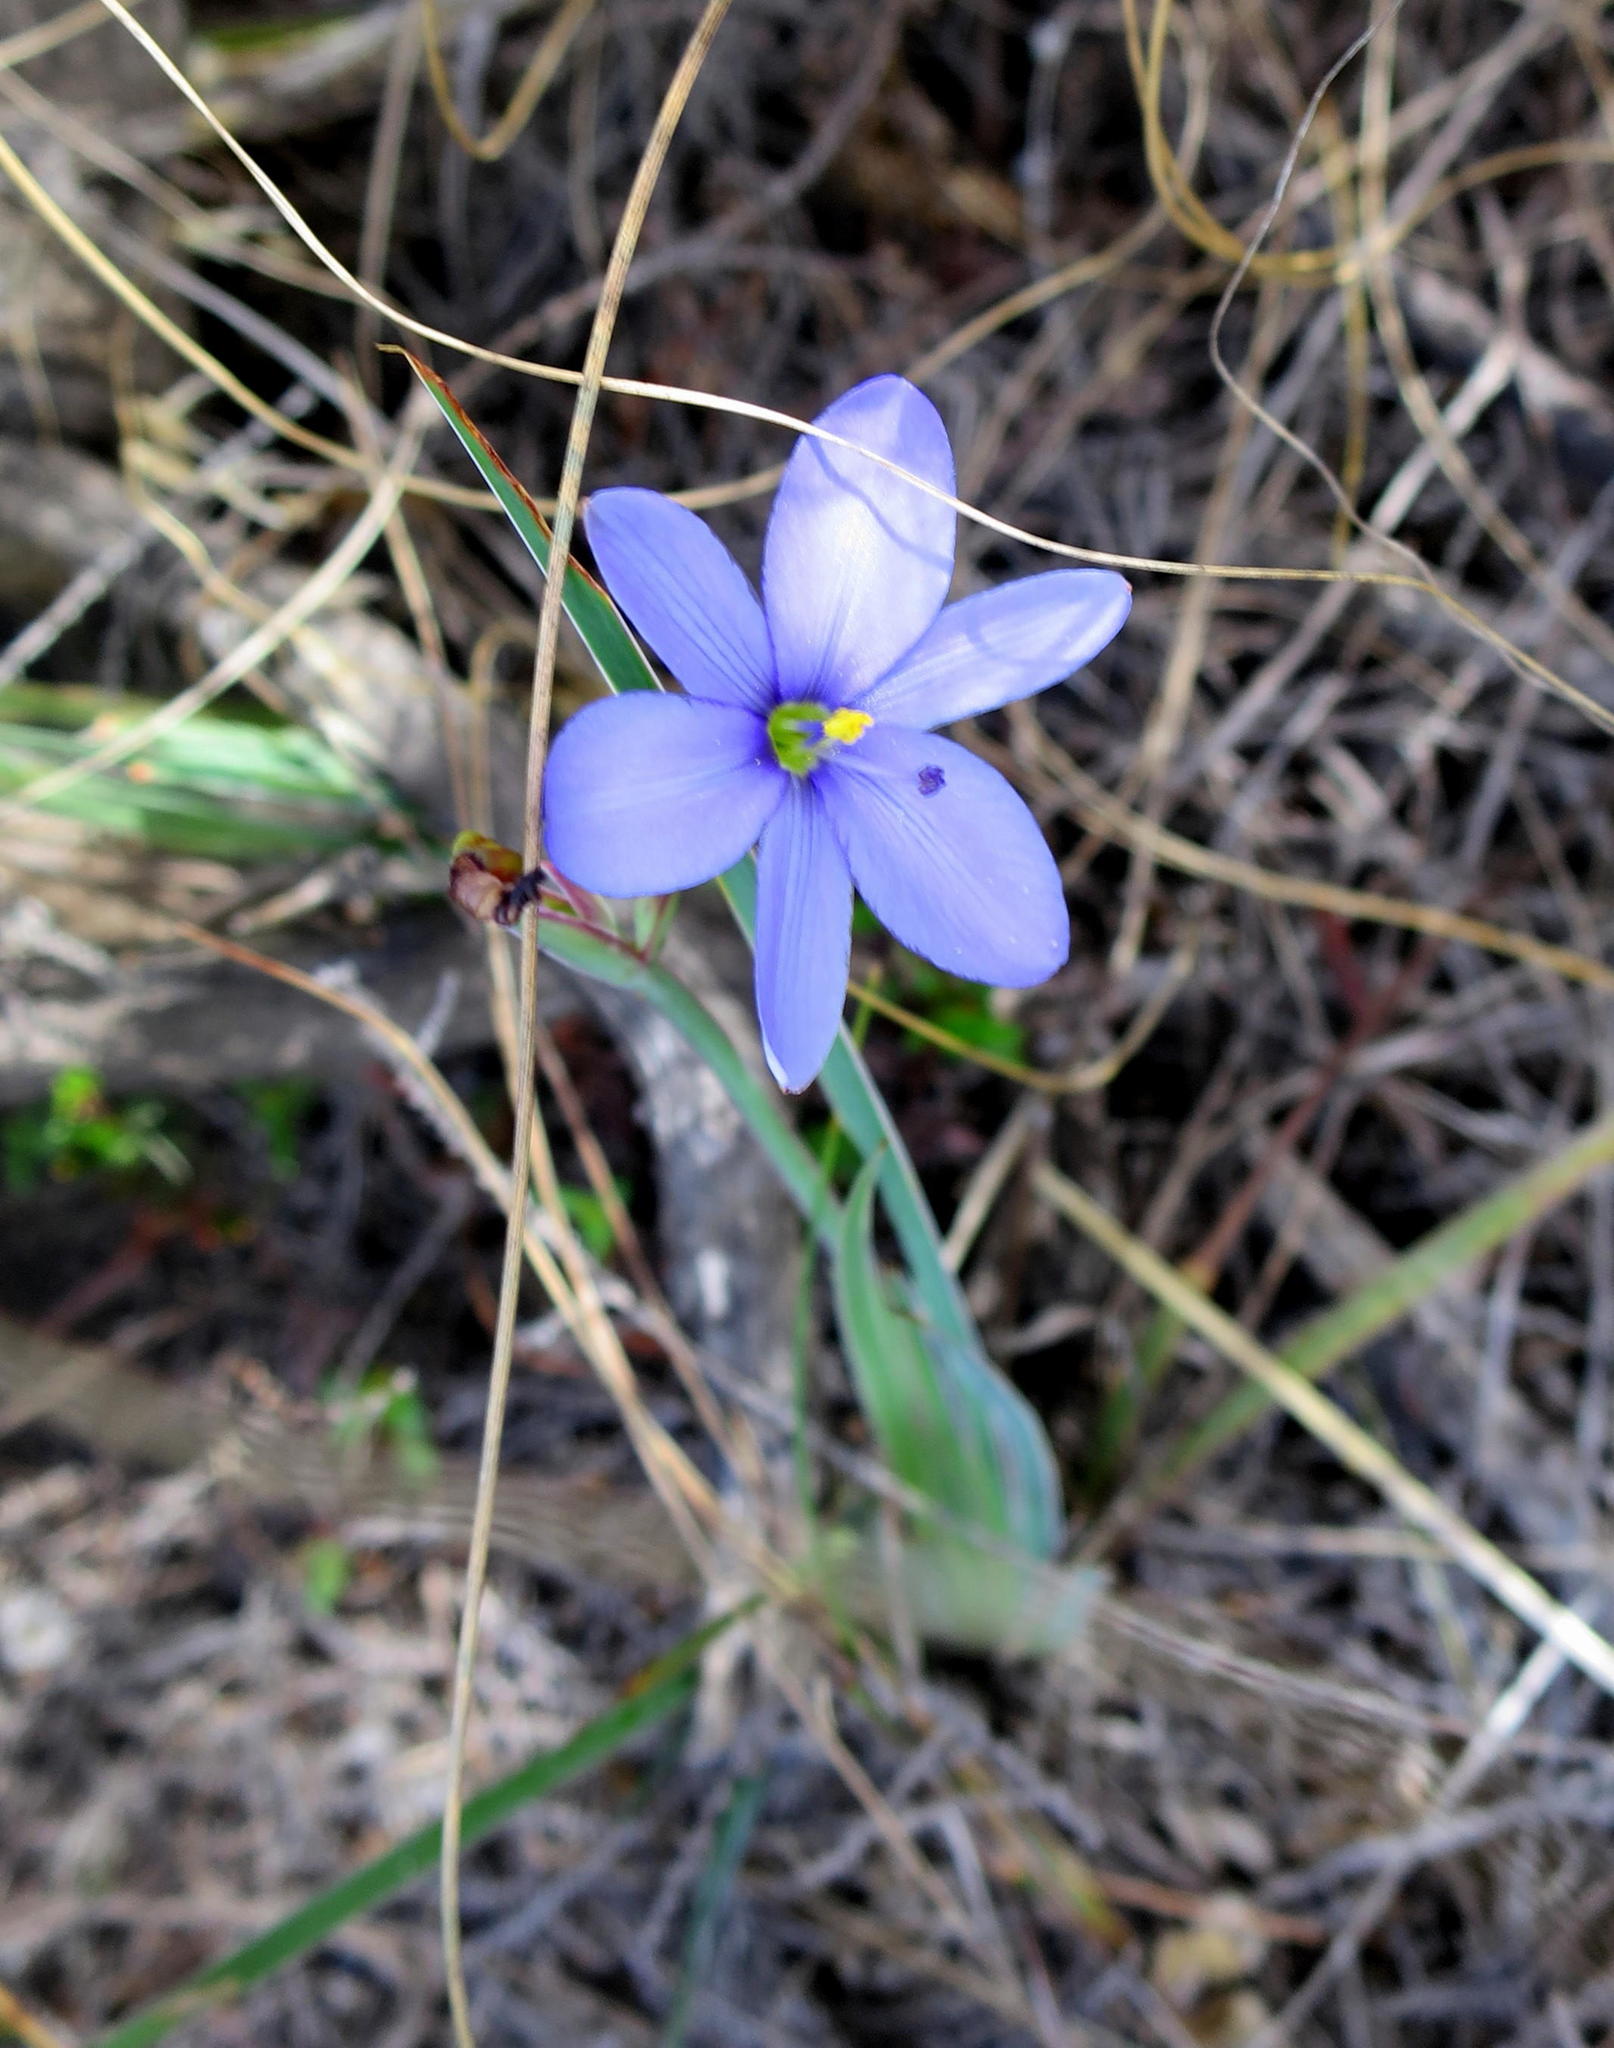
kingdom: Plantae
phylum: Tracheophyta
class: Liliopsida
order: Asparagales
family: Iridaceae
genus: Aristea
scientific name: Aristea nana
